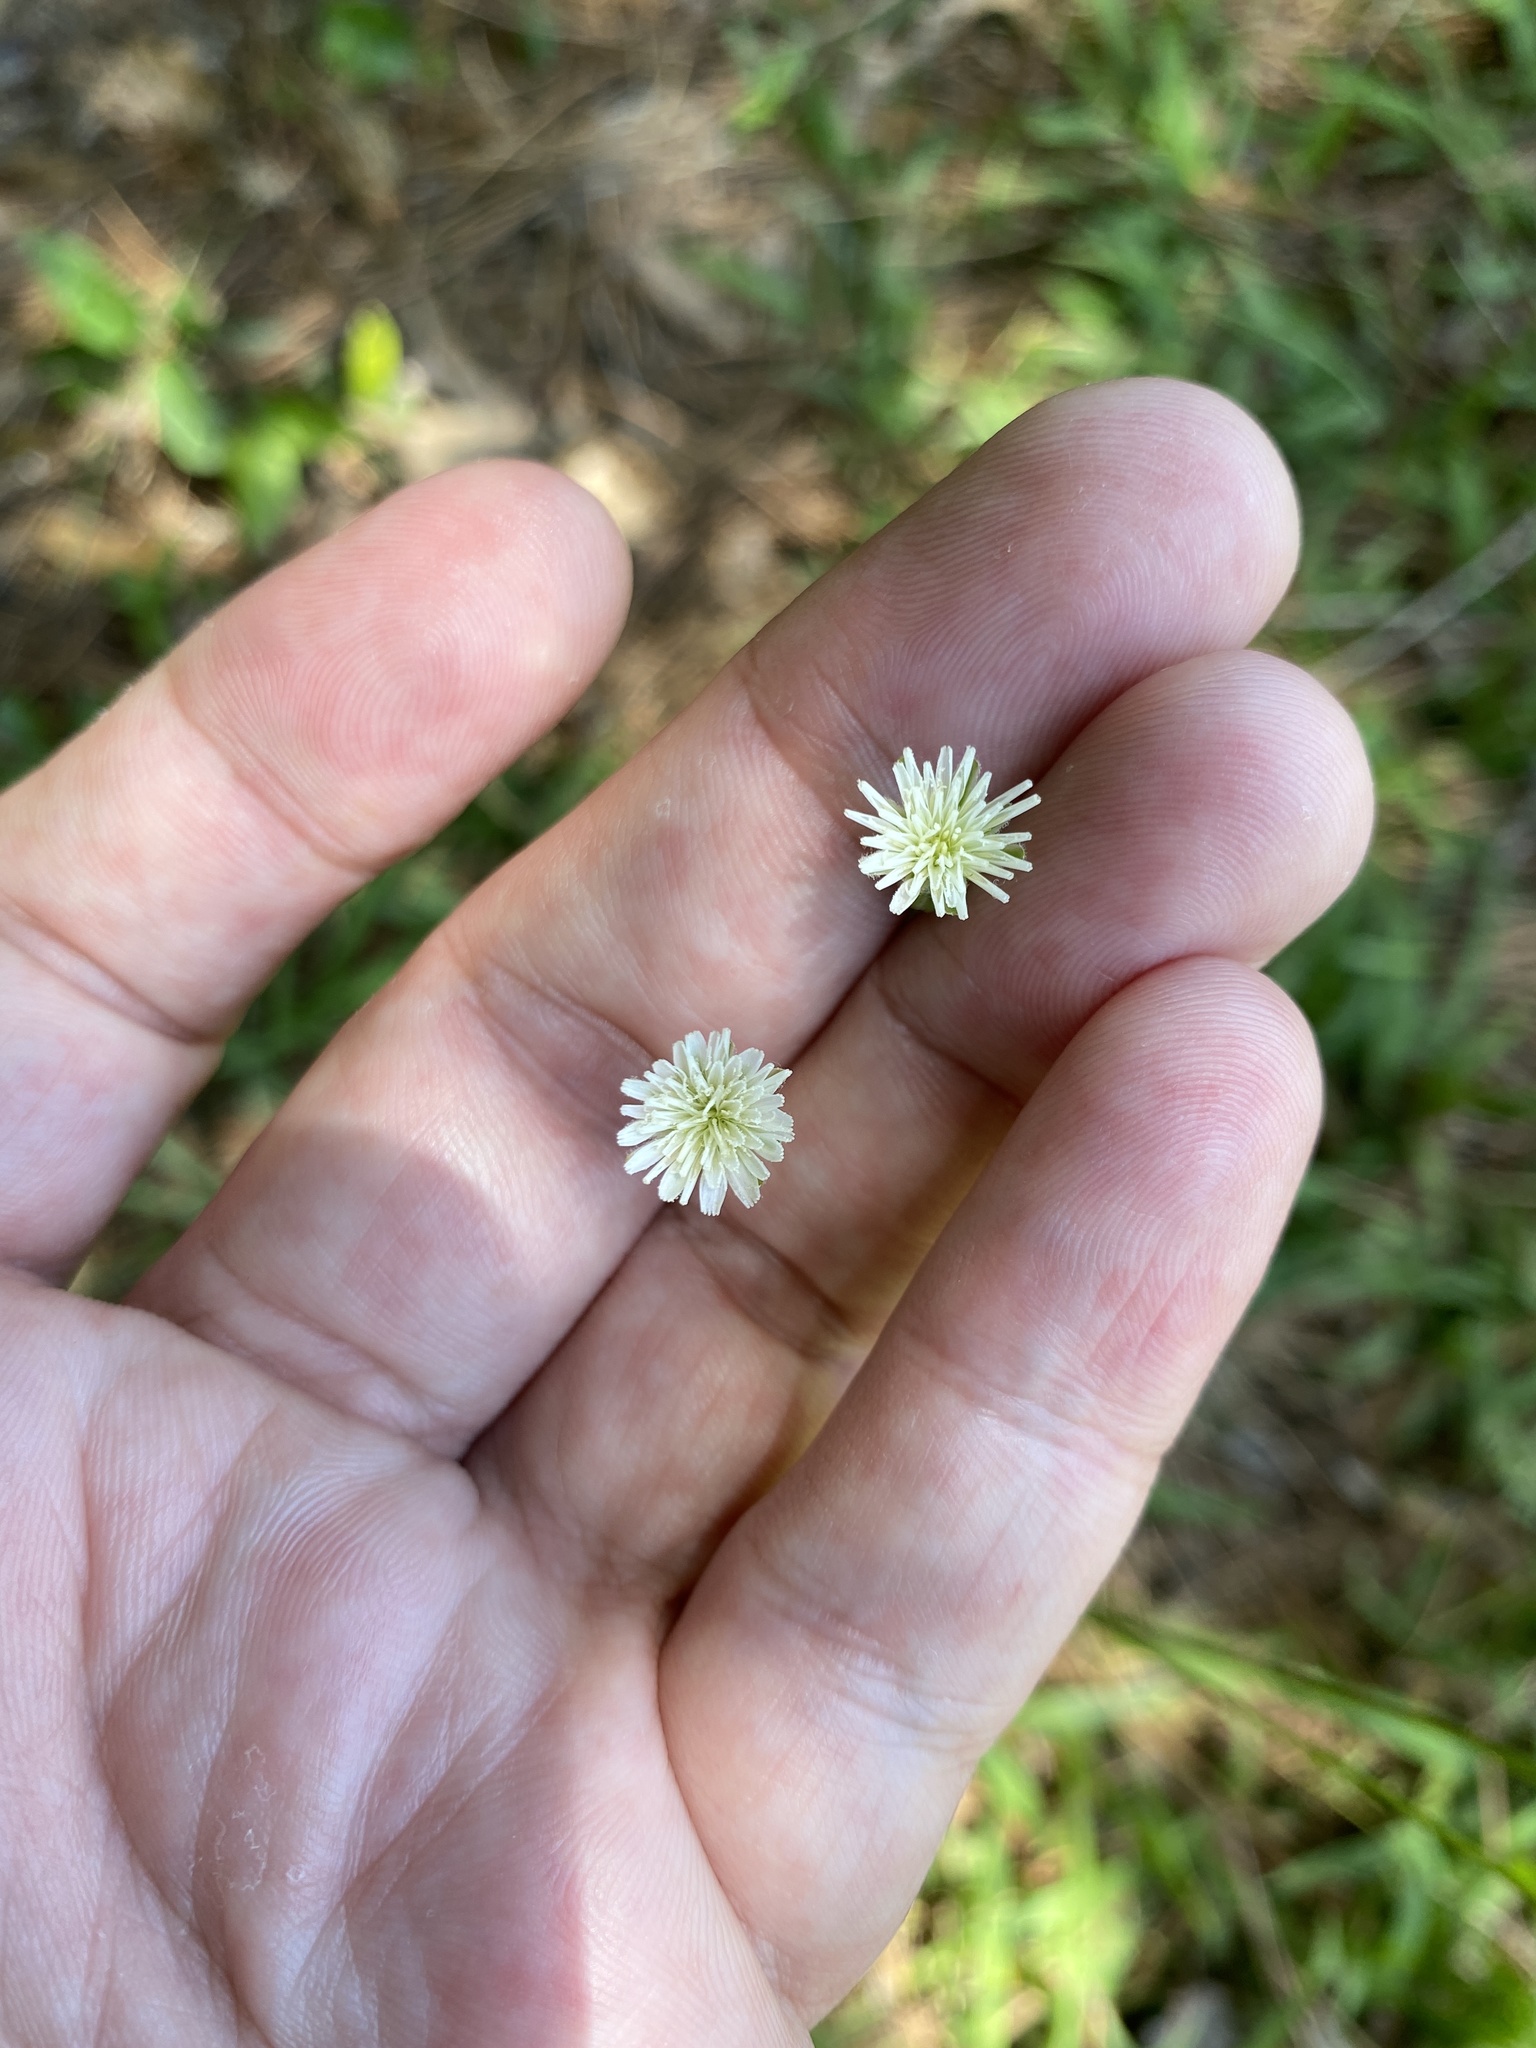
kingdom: Plantae
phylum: Tracheophyta
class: Magnoliopsida
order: Asterales
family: Asteraceae
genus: Hypochaeris
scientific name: Hypochaeris albiflora
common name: White flatweed
